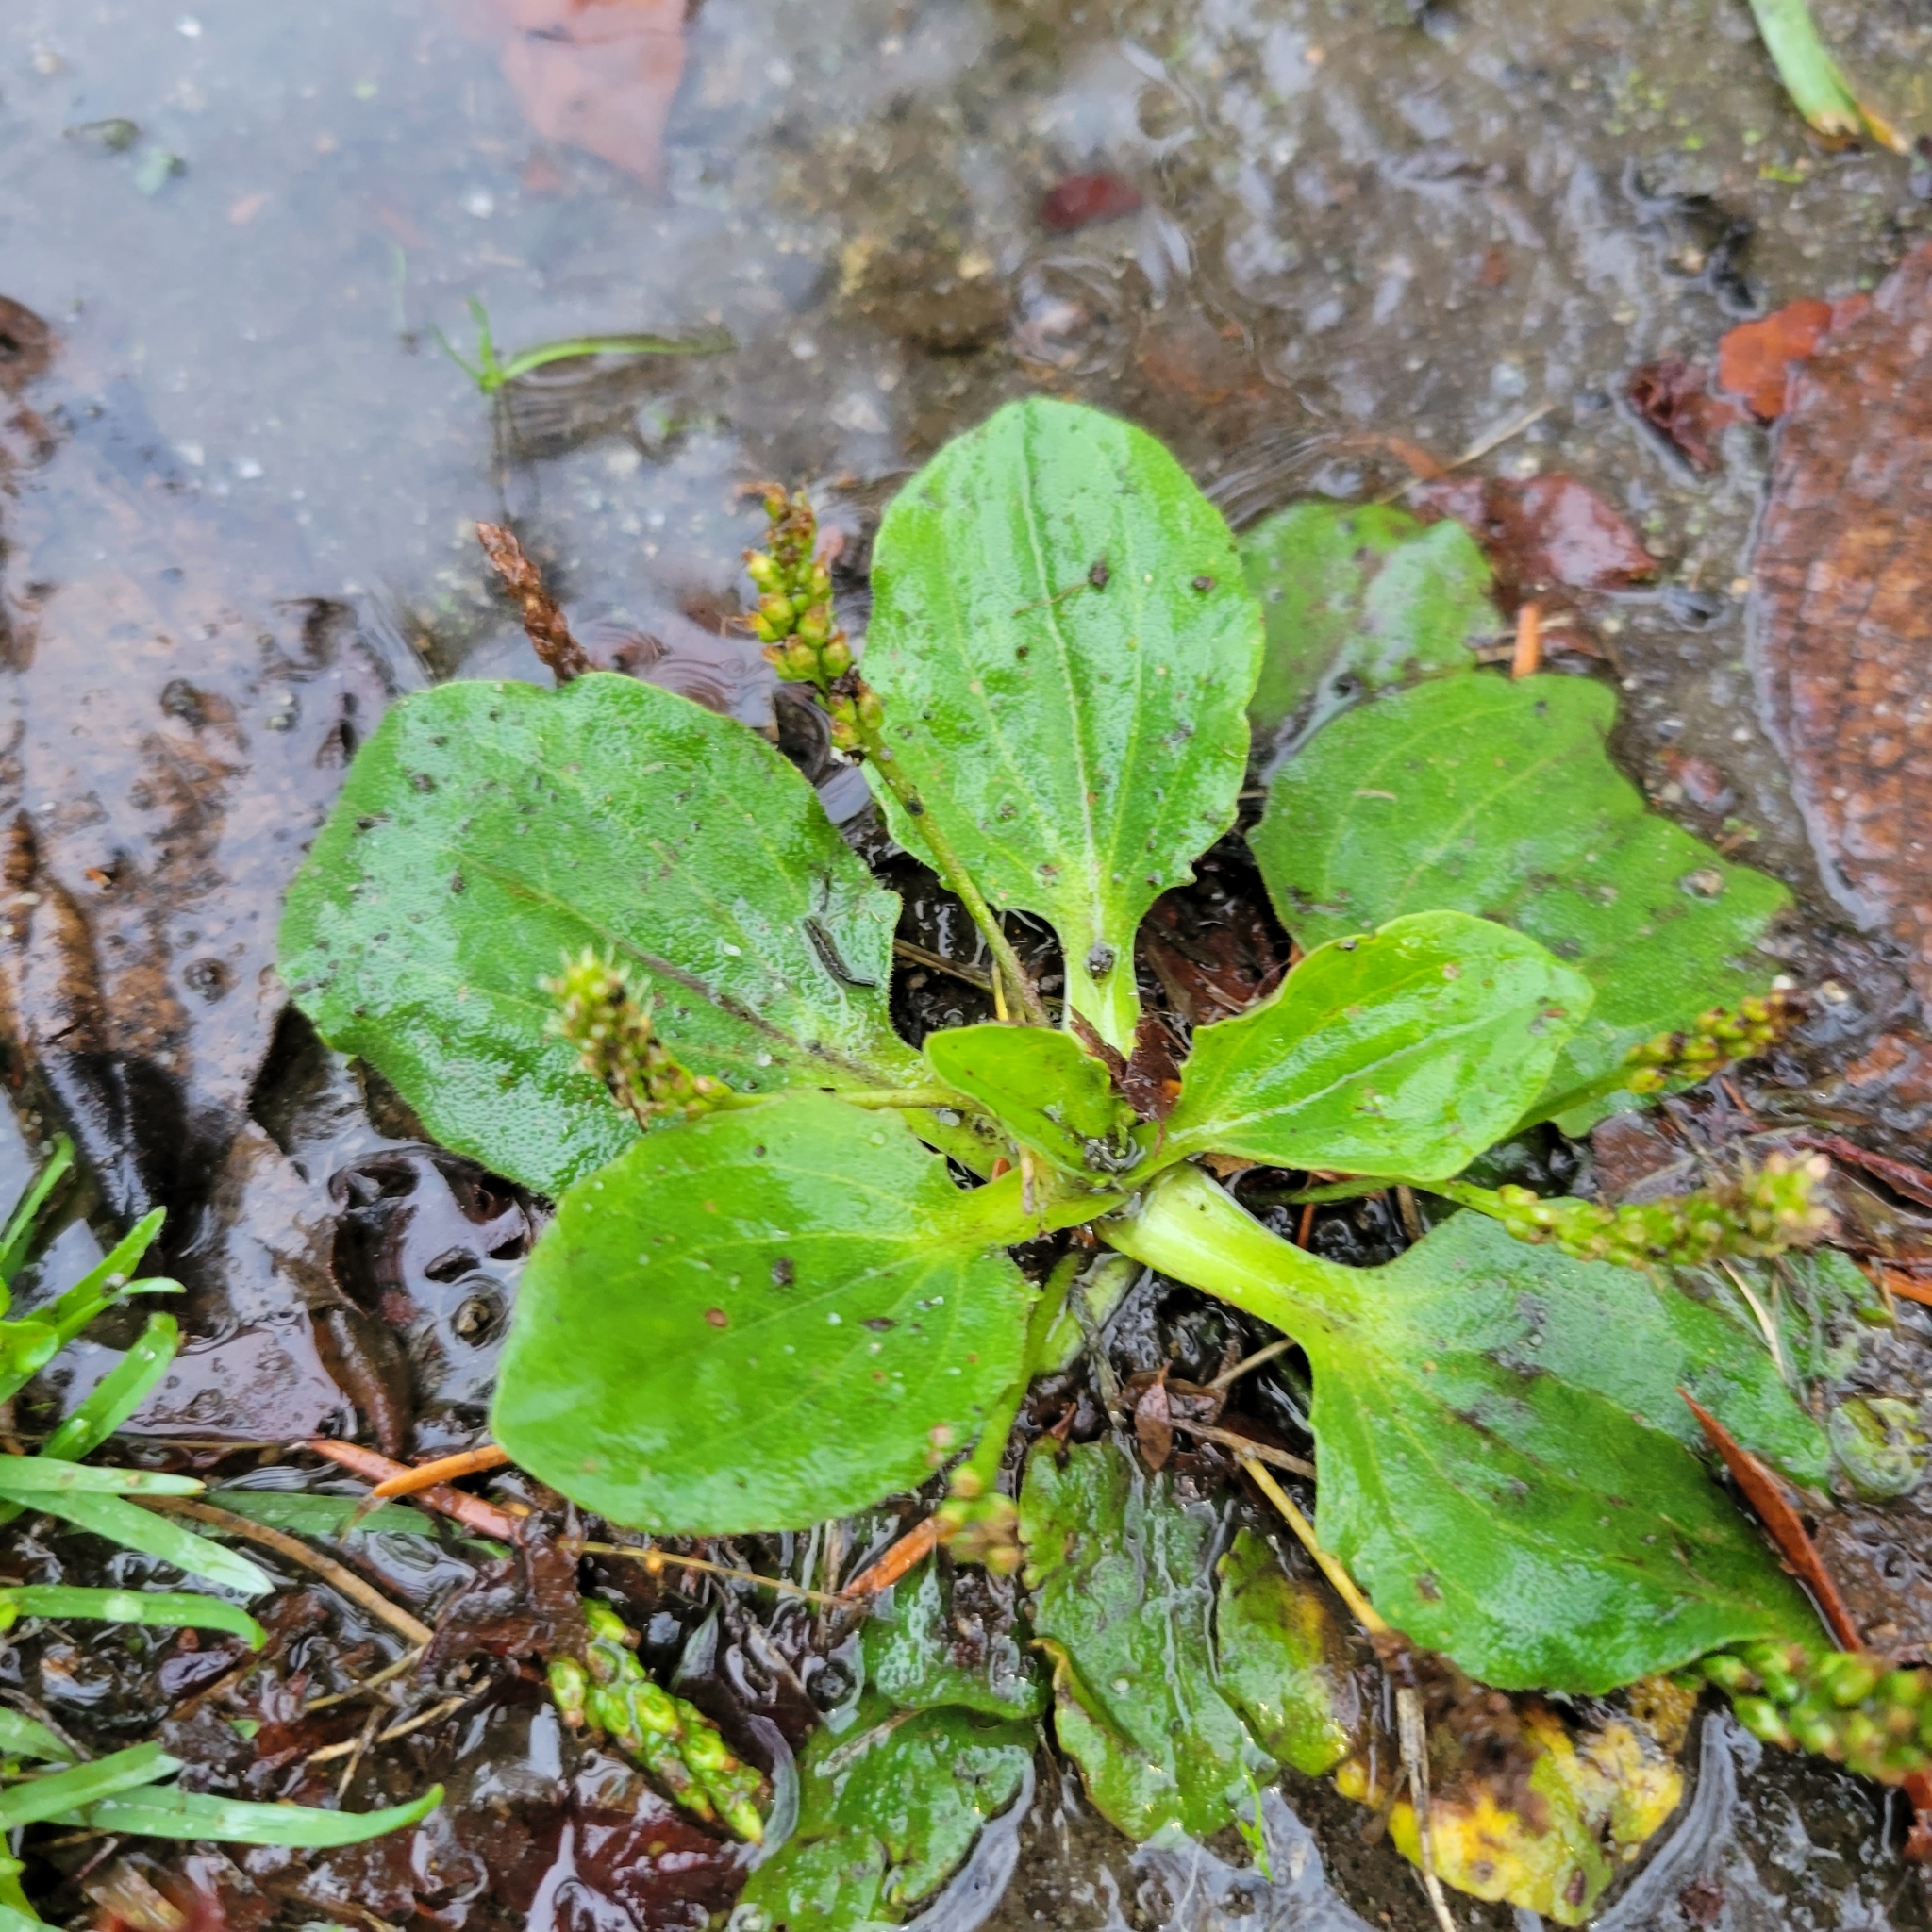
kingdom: Plantae
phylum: Tracheophyta
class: Magnoliopsida
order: Lamiales
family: Plantaginaceae
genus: Plantago
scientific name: Plantago major
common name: Common plantain
